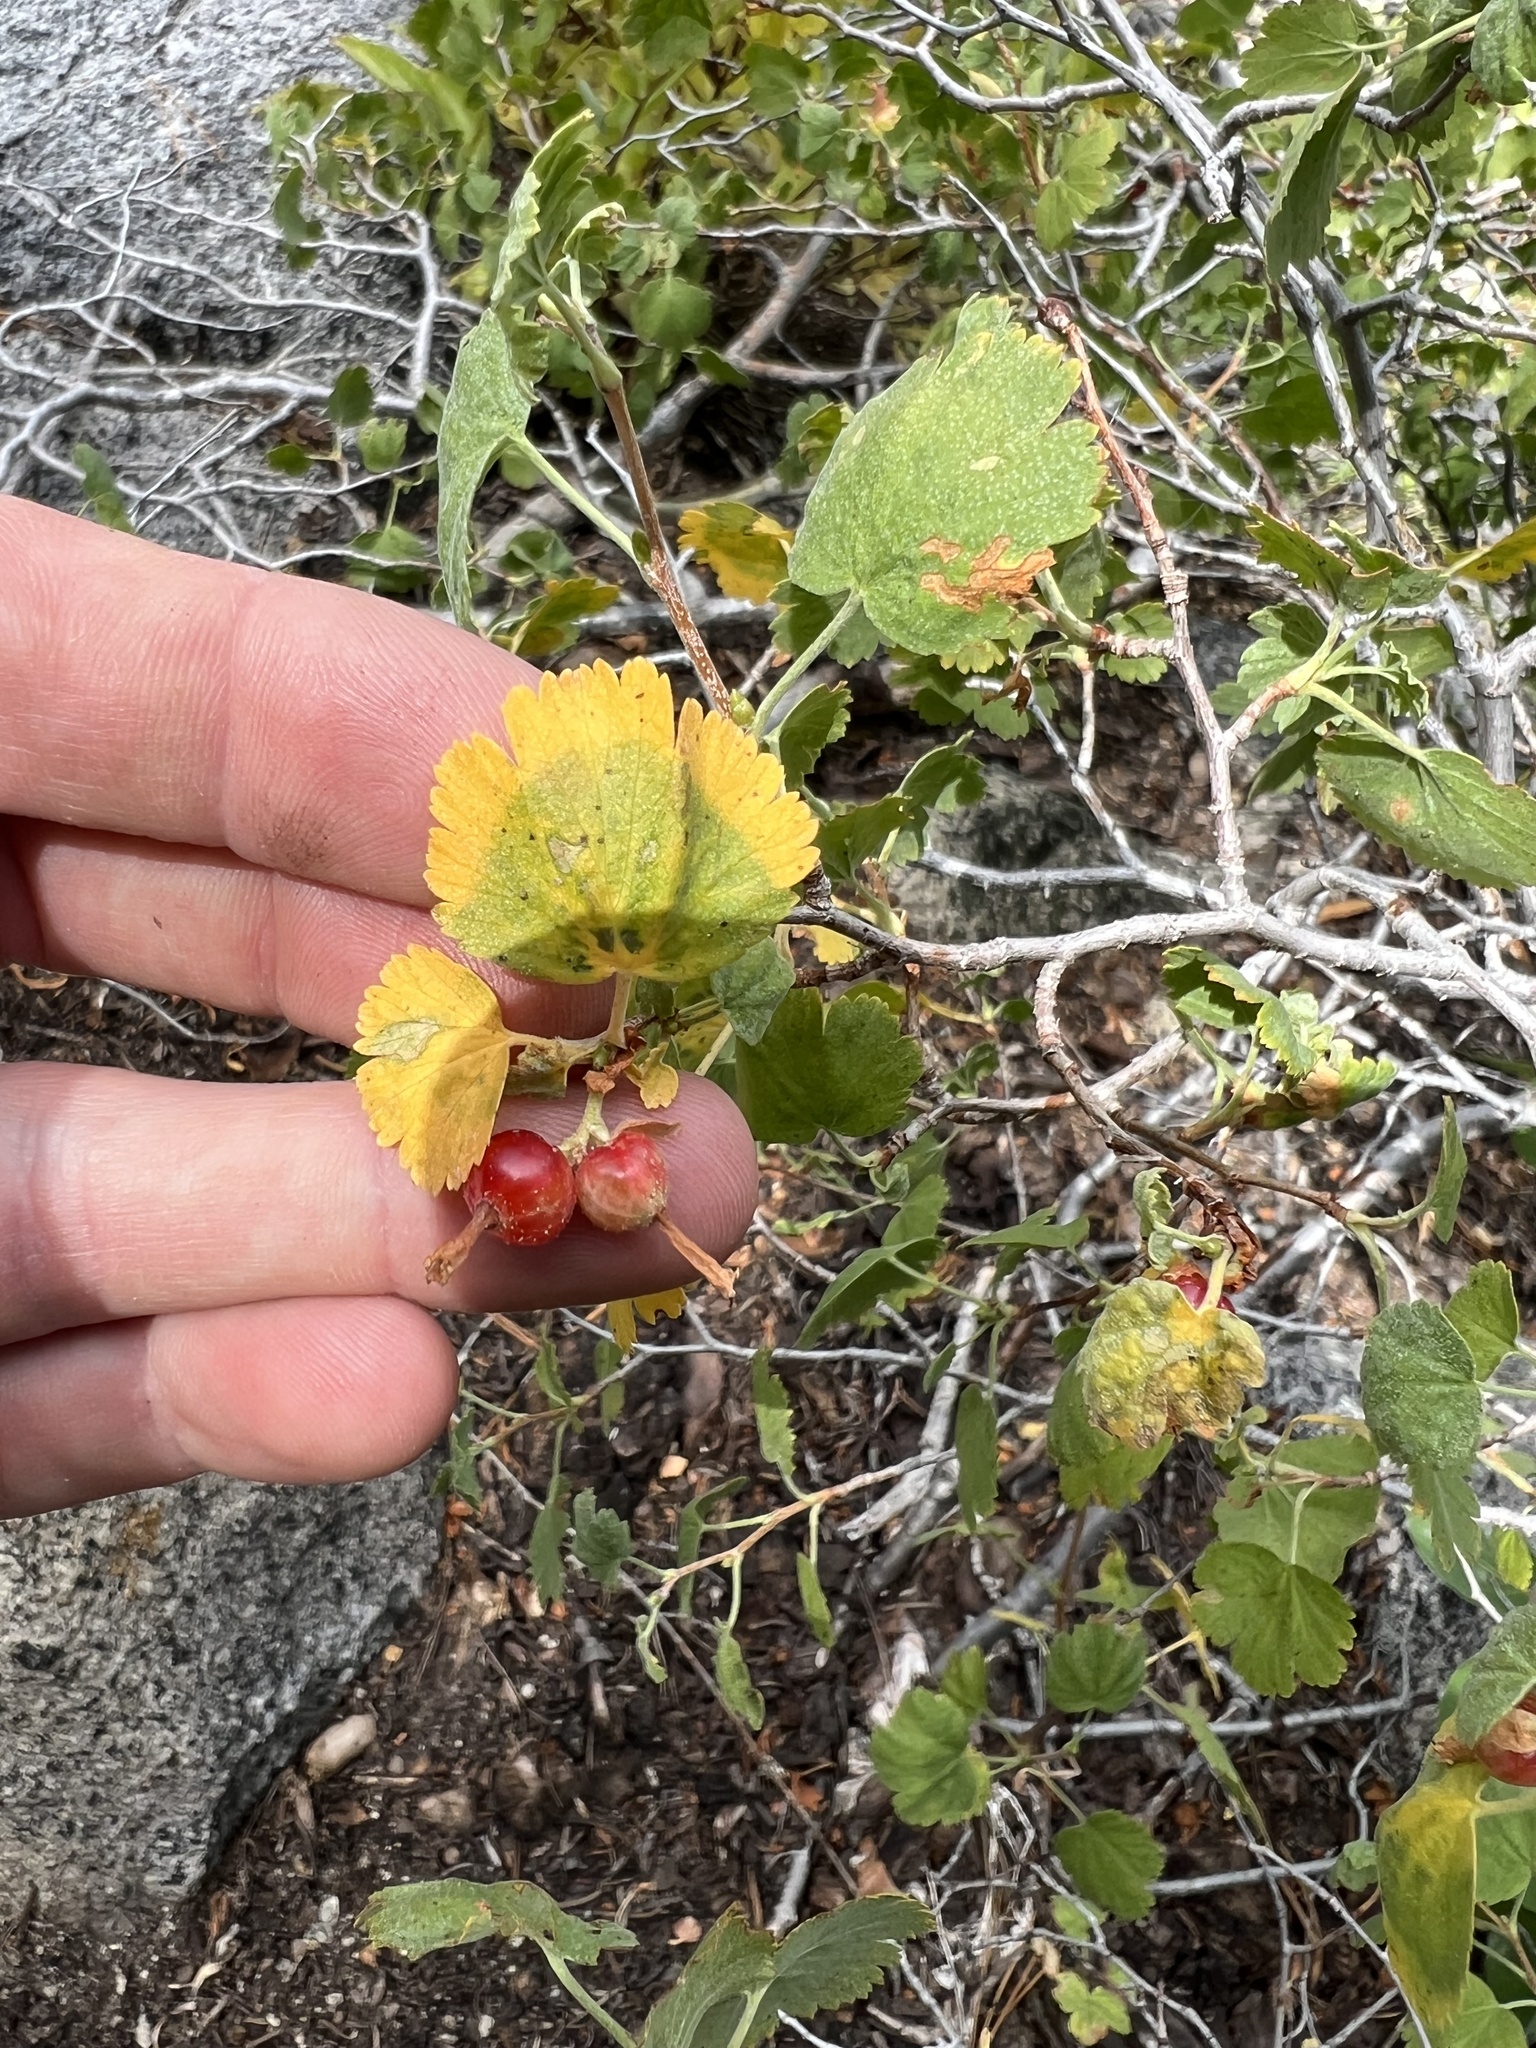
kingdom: Plantae
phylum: Tracheophyta
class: Magnoliopsida
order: Saxifragales
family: Grossulariaceae
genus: Ribes
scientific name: Ribes cereum
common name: Wax currant
